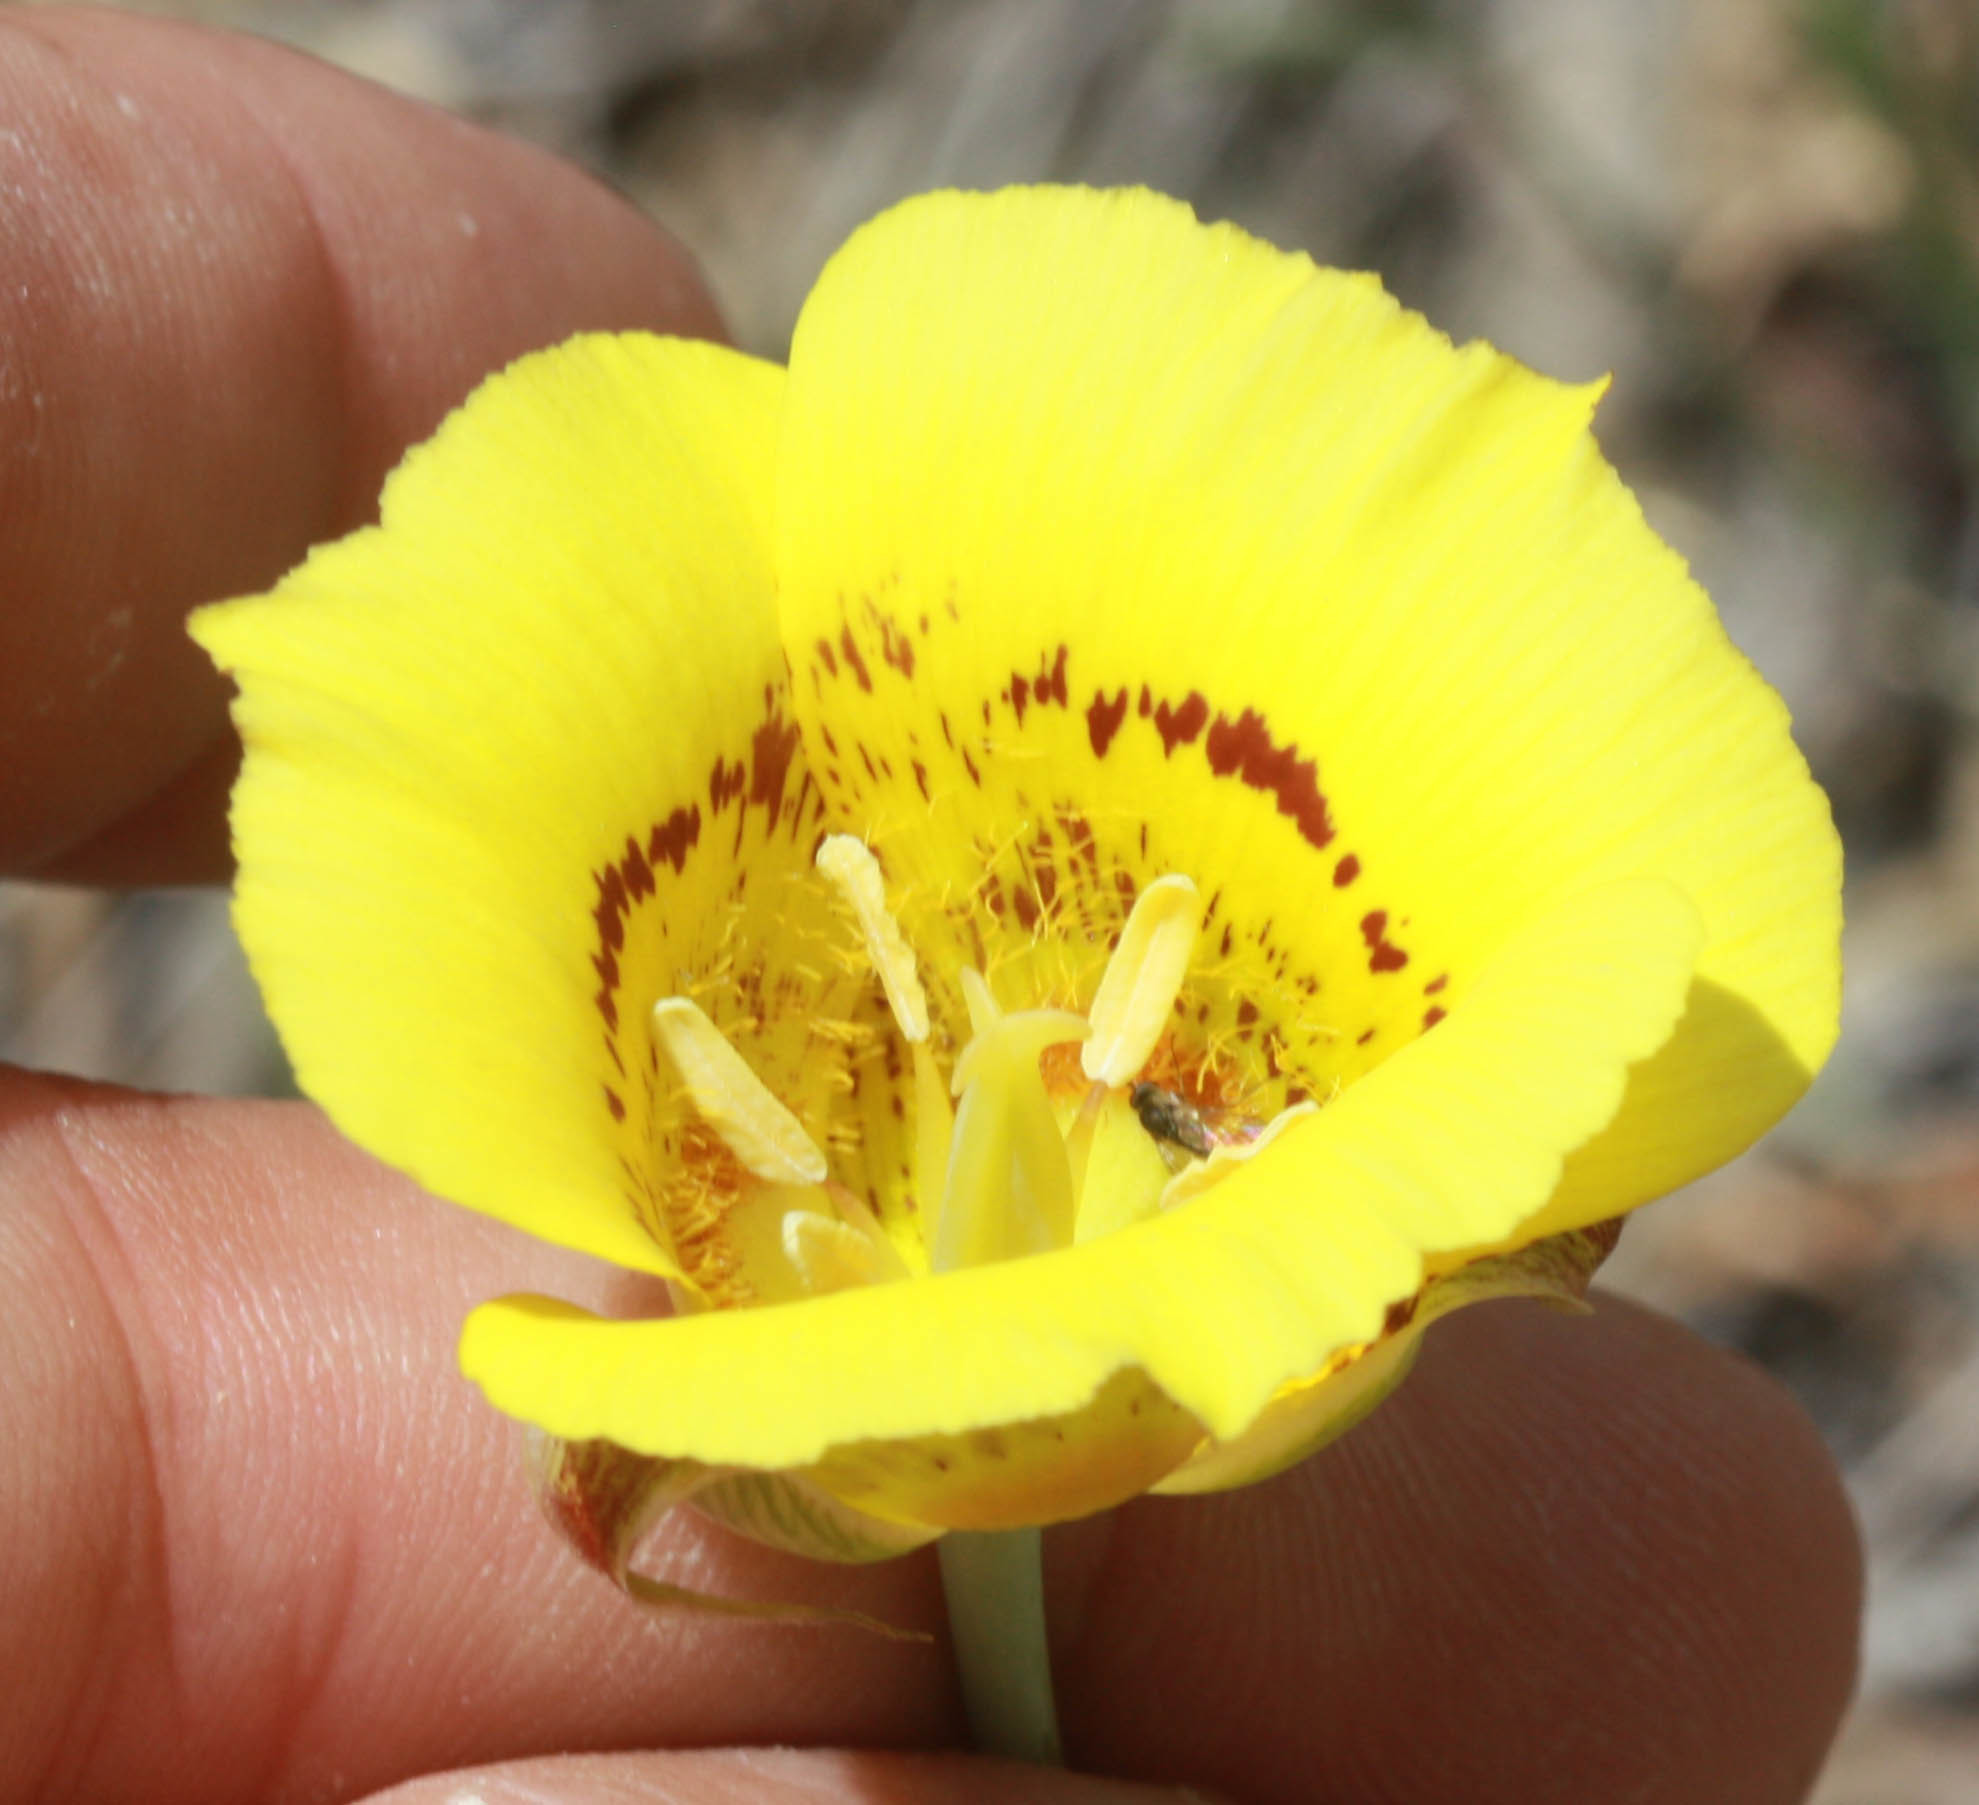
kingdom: Plantae
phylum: Tracheophyta
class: Liliopsida
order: Liliales
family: Liliaceae
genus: Calochortus
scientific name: Calochortus luteus
